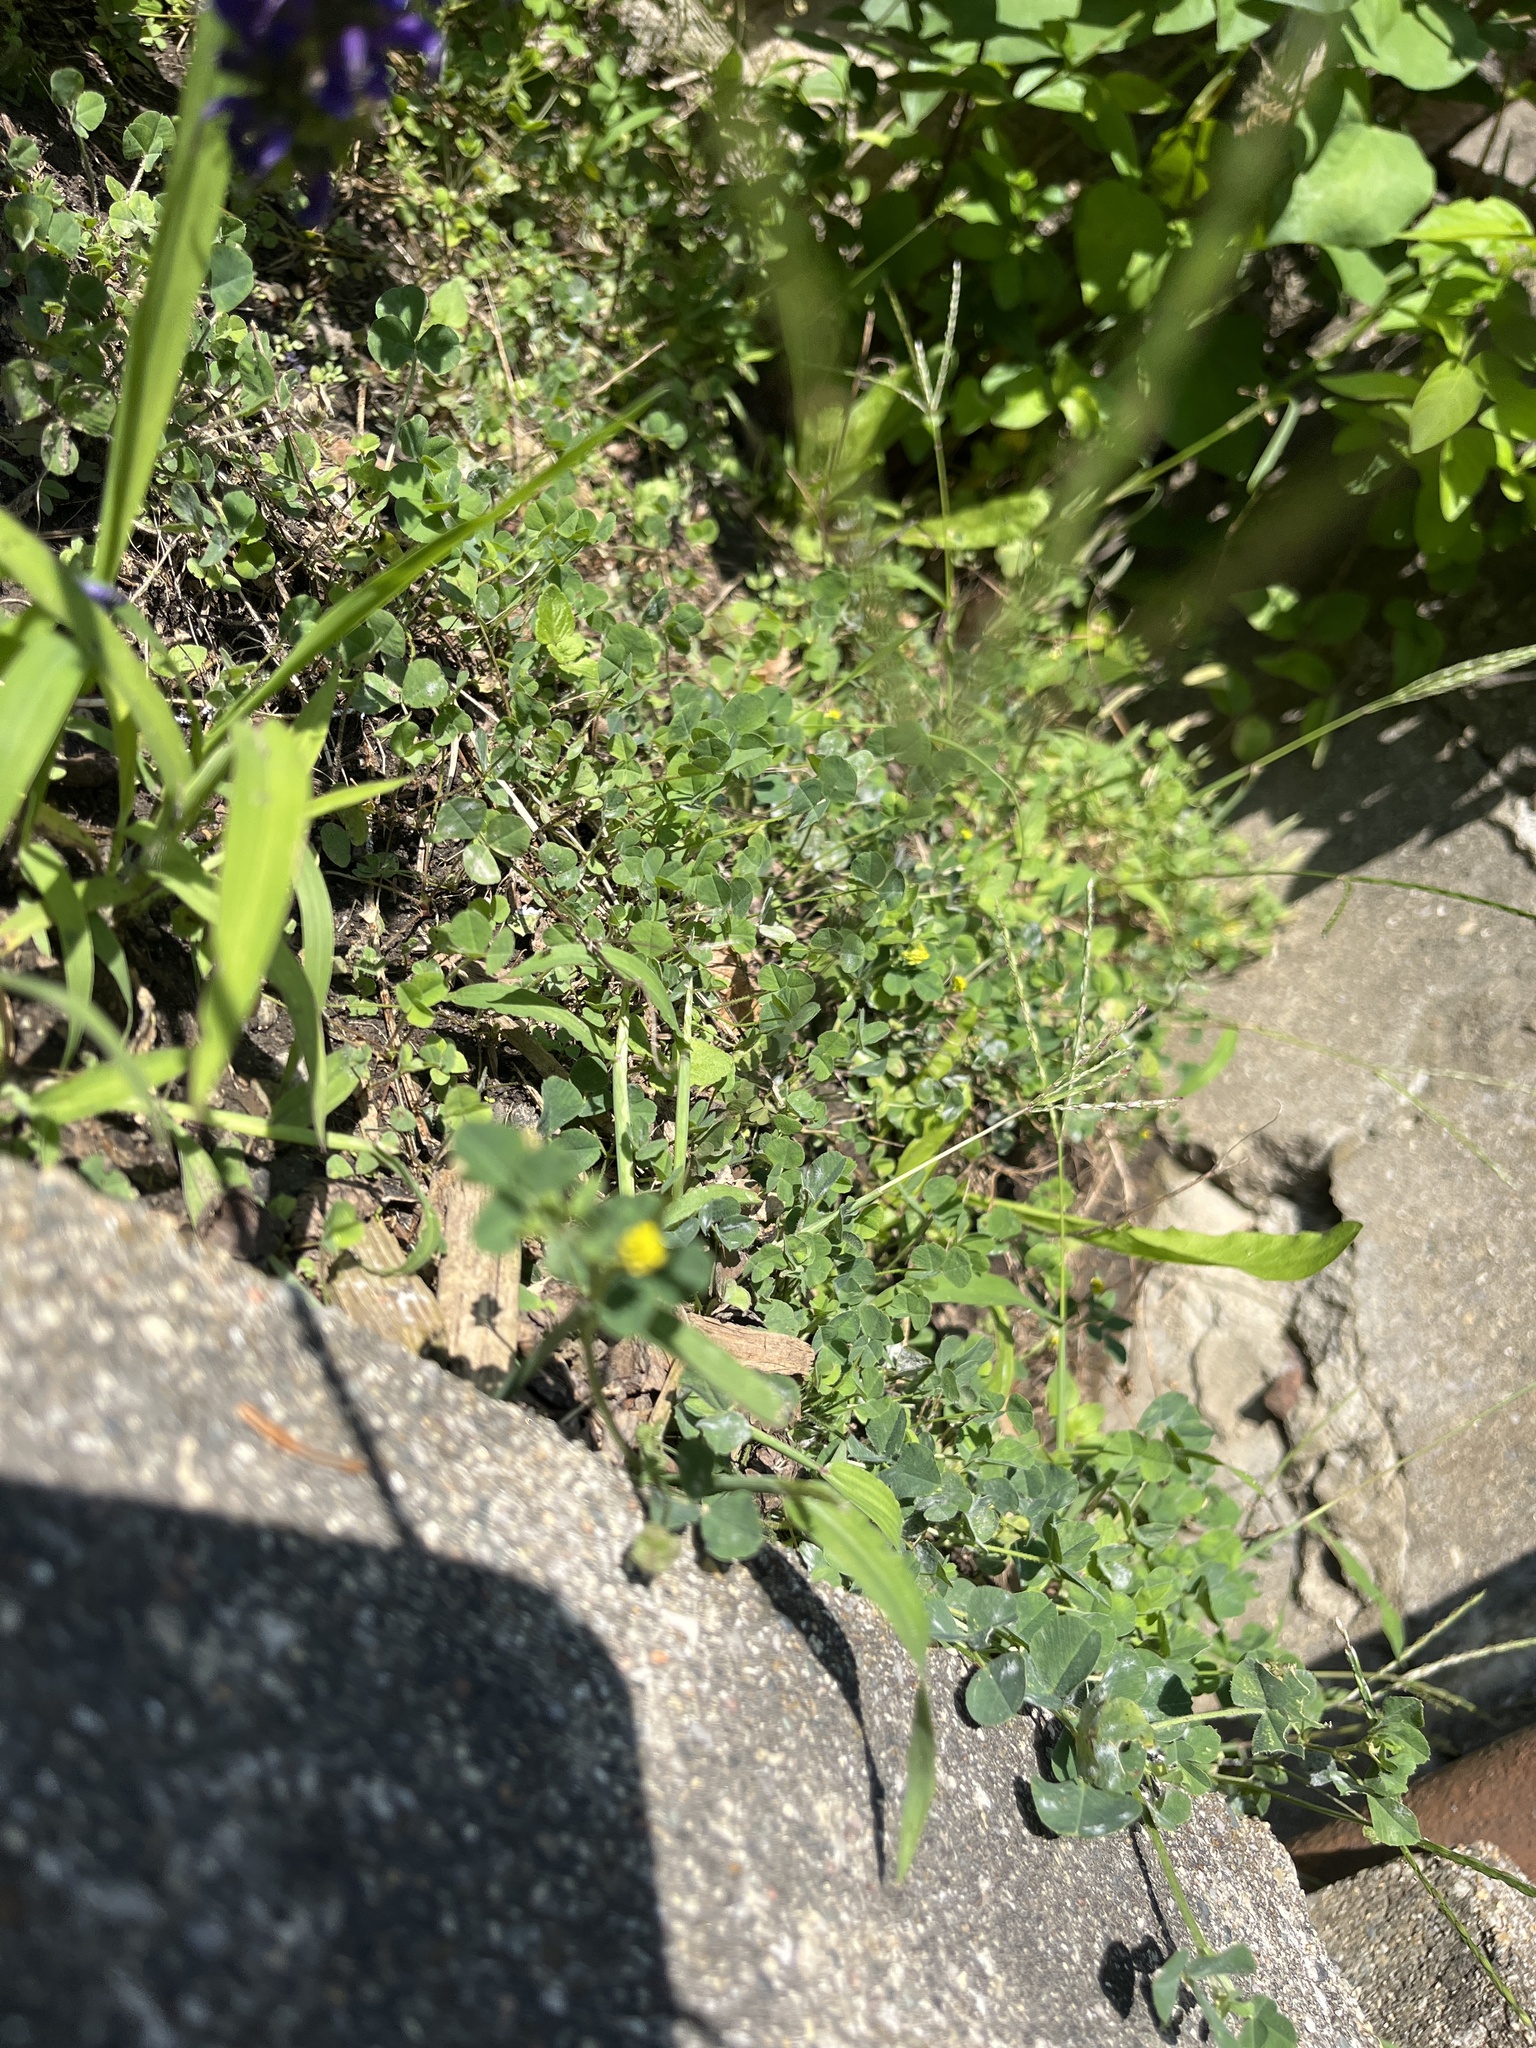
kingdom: Plantae
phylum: Tracheophyta
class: Magnoliopsida
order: Fabales
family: Fabaceae
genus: Medicago
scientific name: Medicago lupulina
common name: Black medick
